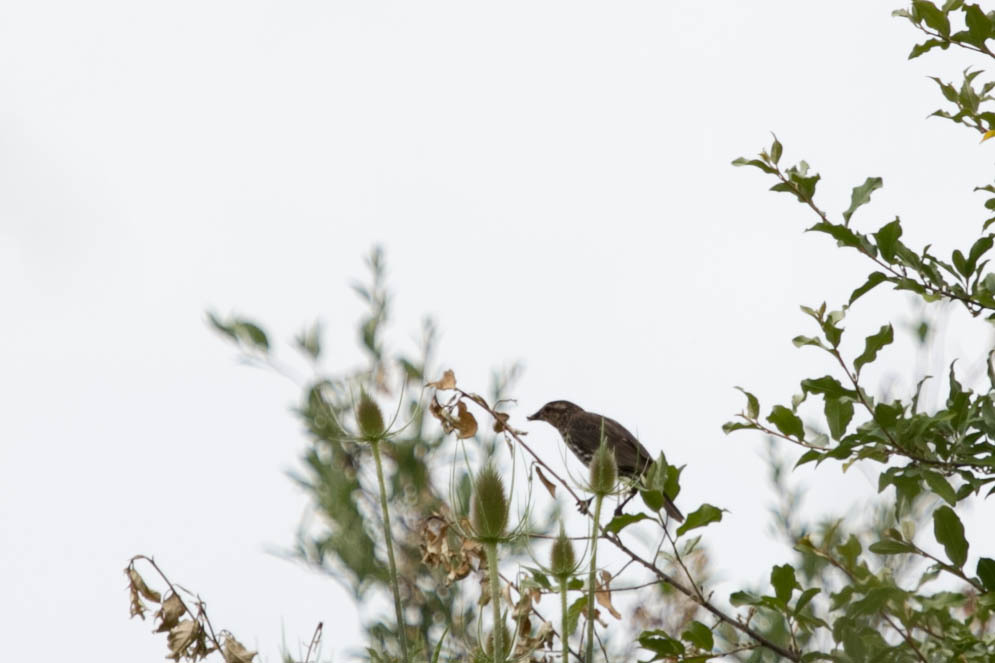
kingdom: Animalia
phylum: Chordata
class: Aves
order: Passeriformes
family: Icteridae
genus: Agelaius
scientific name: Agelaius phoeniceus
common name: Red-winged blackbird
